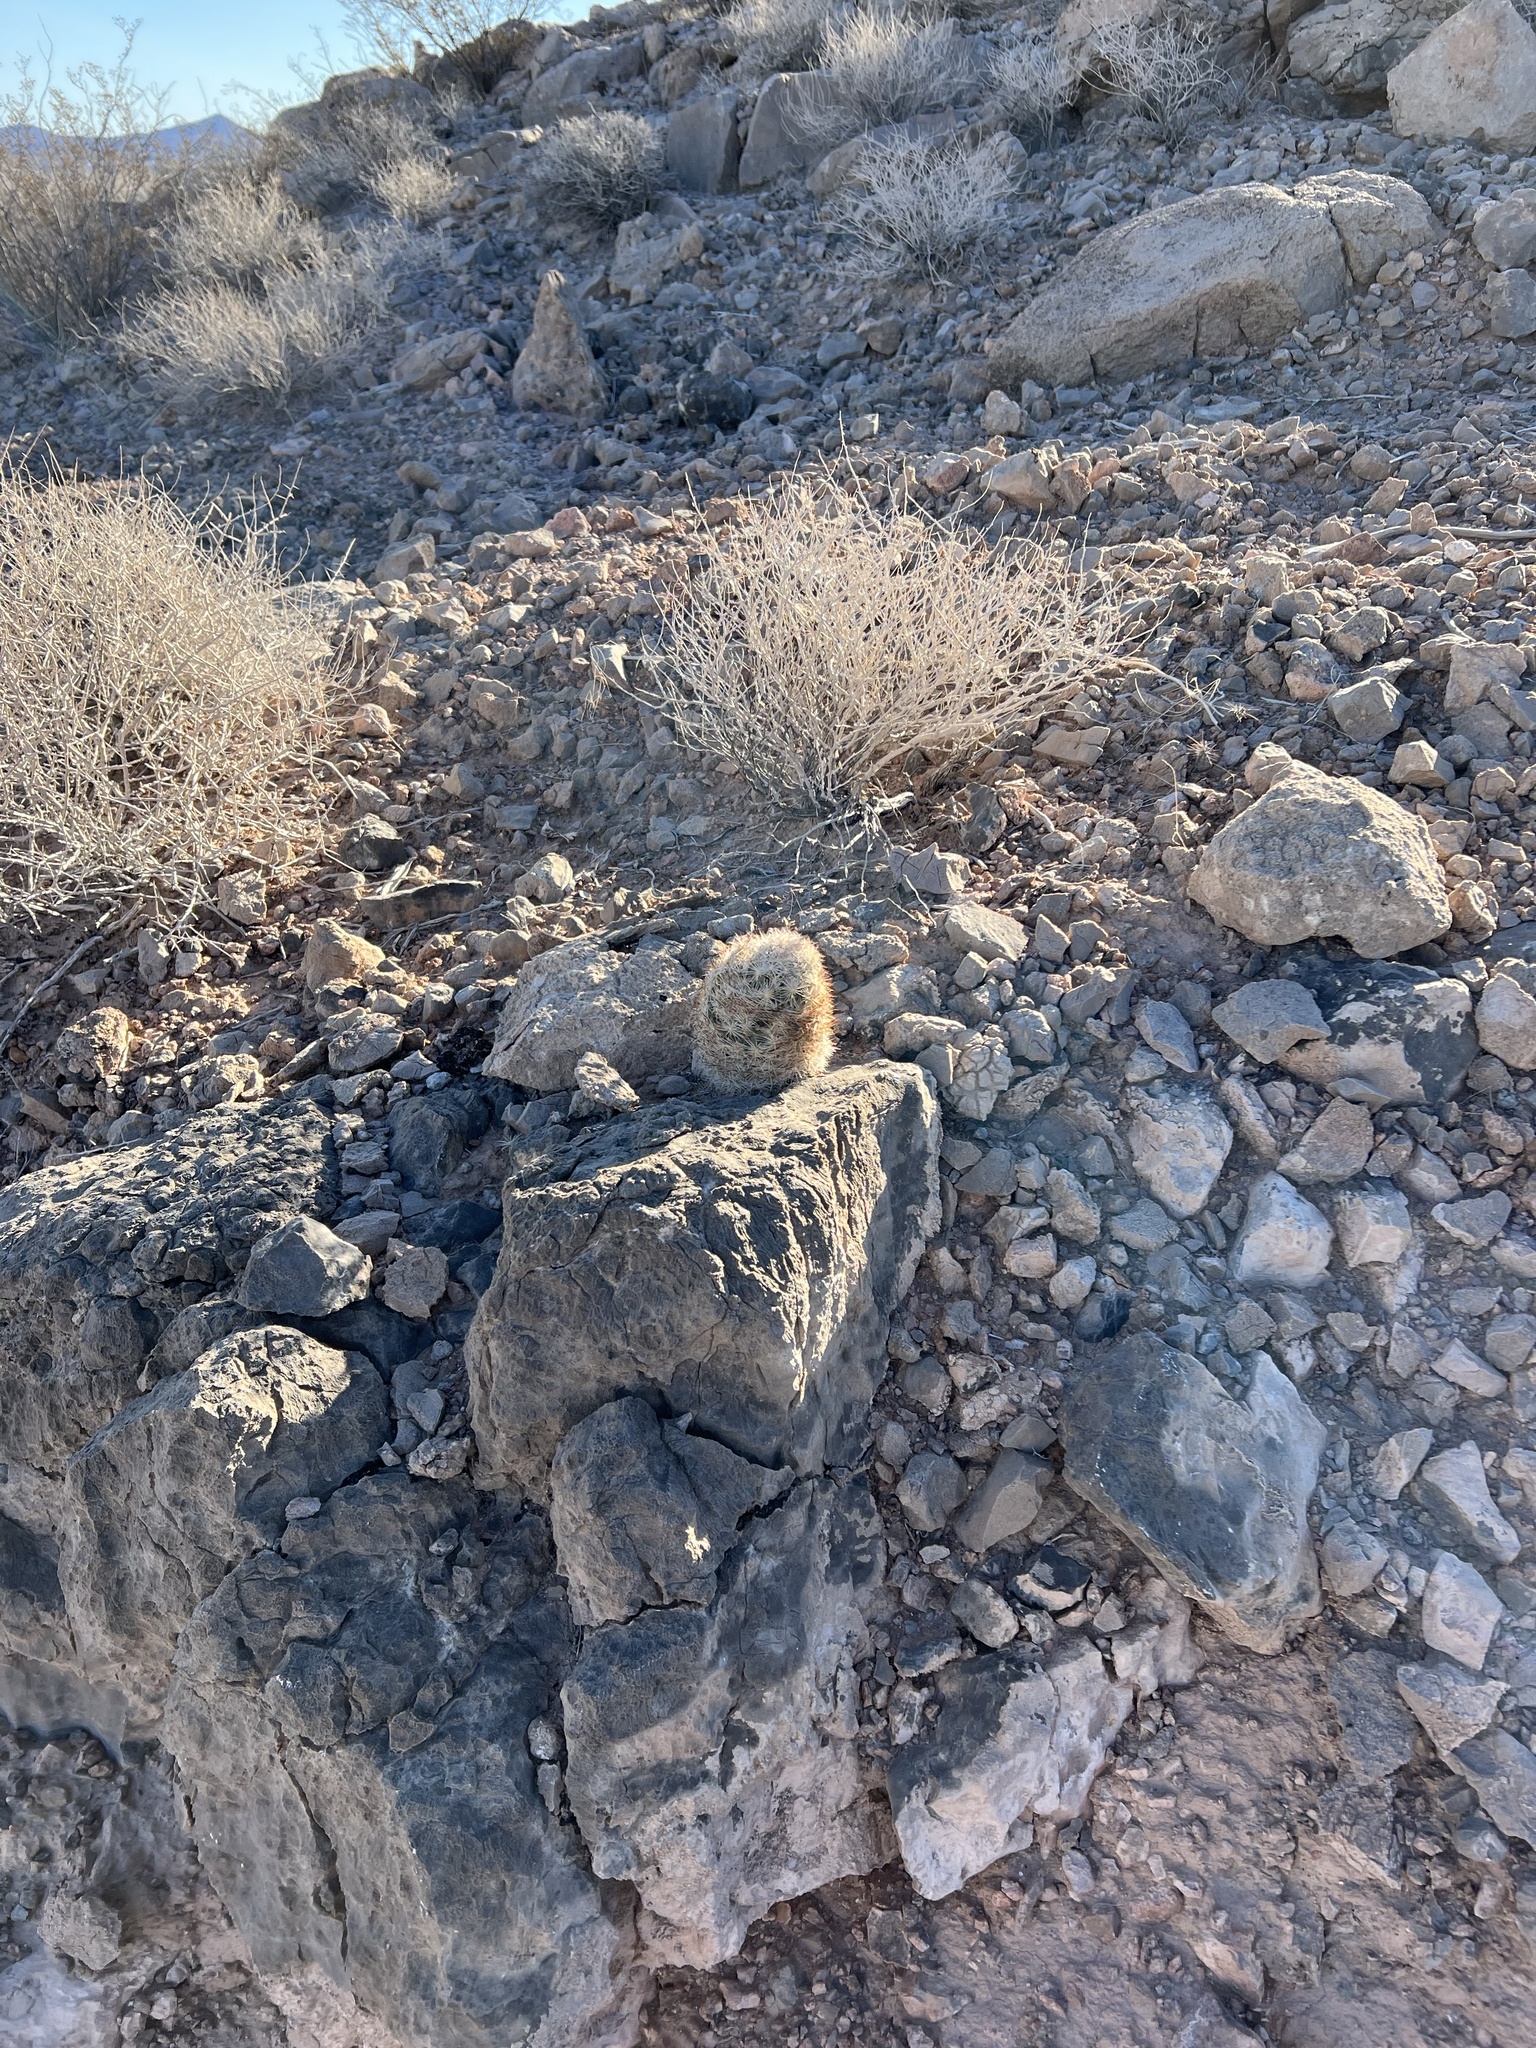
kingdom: Plantae
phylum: Tracheophyta
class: Magnoliopsida
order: Caryophyllales
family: Cactaceae
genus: Pelecyphora
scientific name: Pelecyphora dasyacantha
